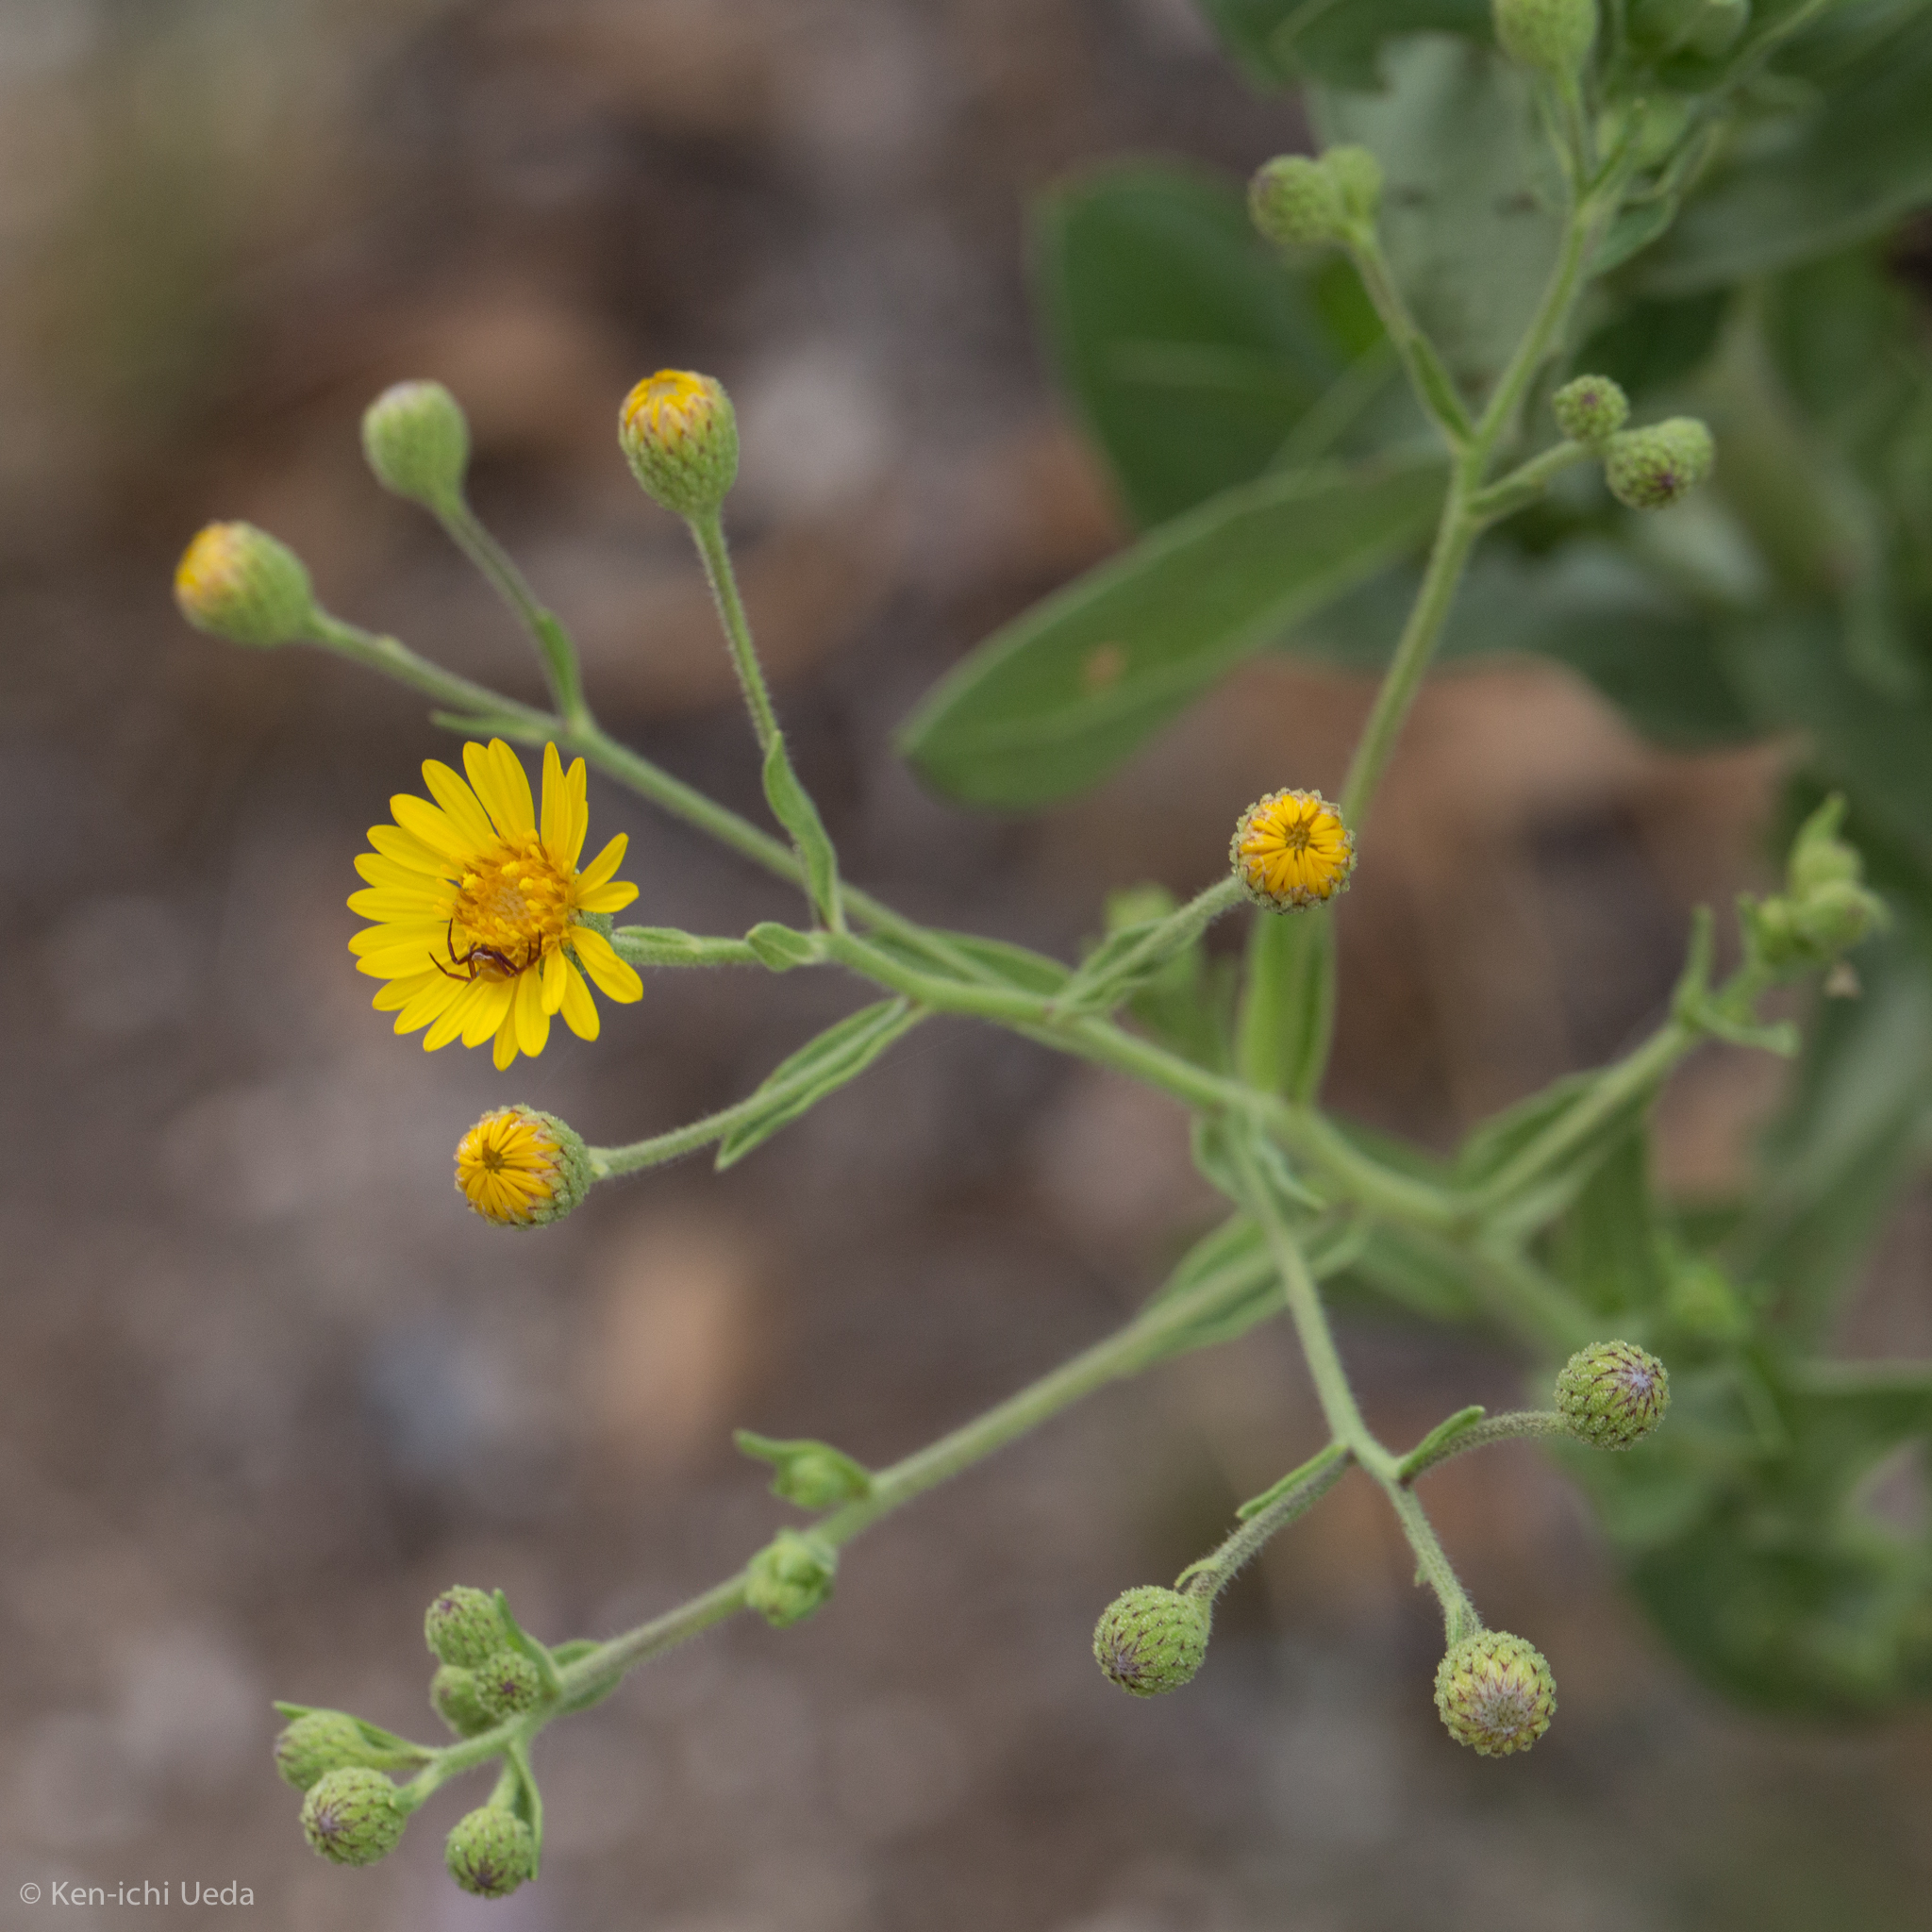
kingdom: Plantae
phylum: Tracheophyta
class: Magnoliopsida
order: Asterales
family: Asteraceae
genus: Heterotheca
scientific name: Heterotheca subaxillaris
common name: Camphorweed
